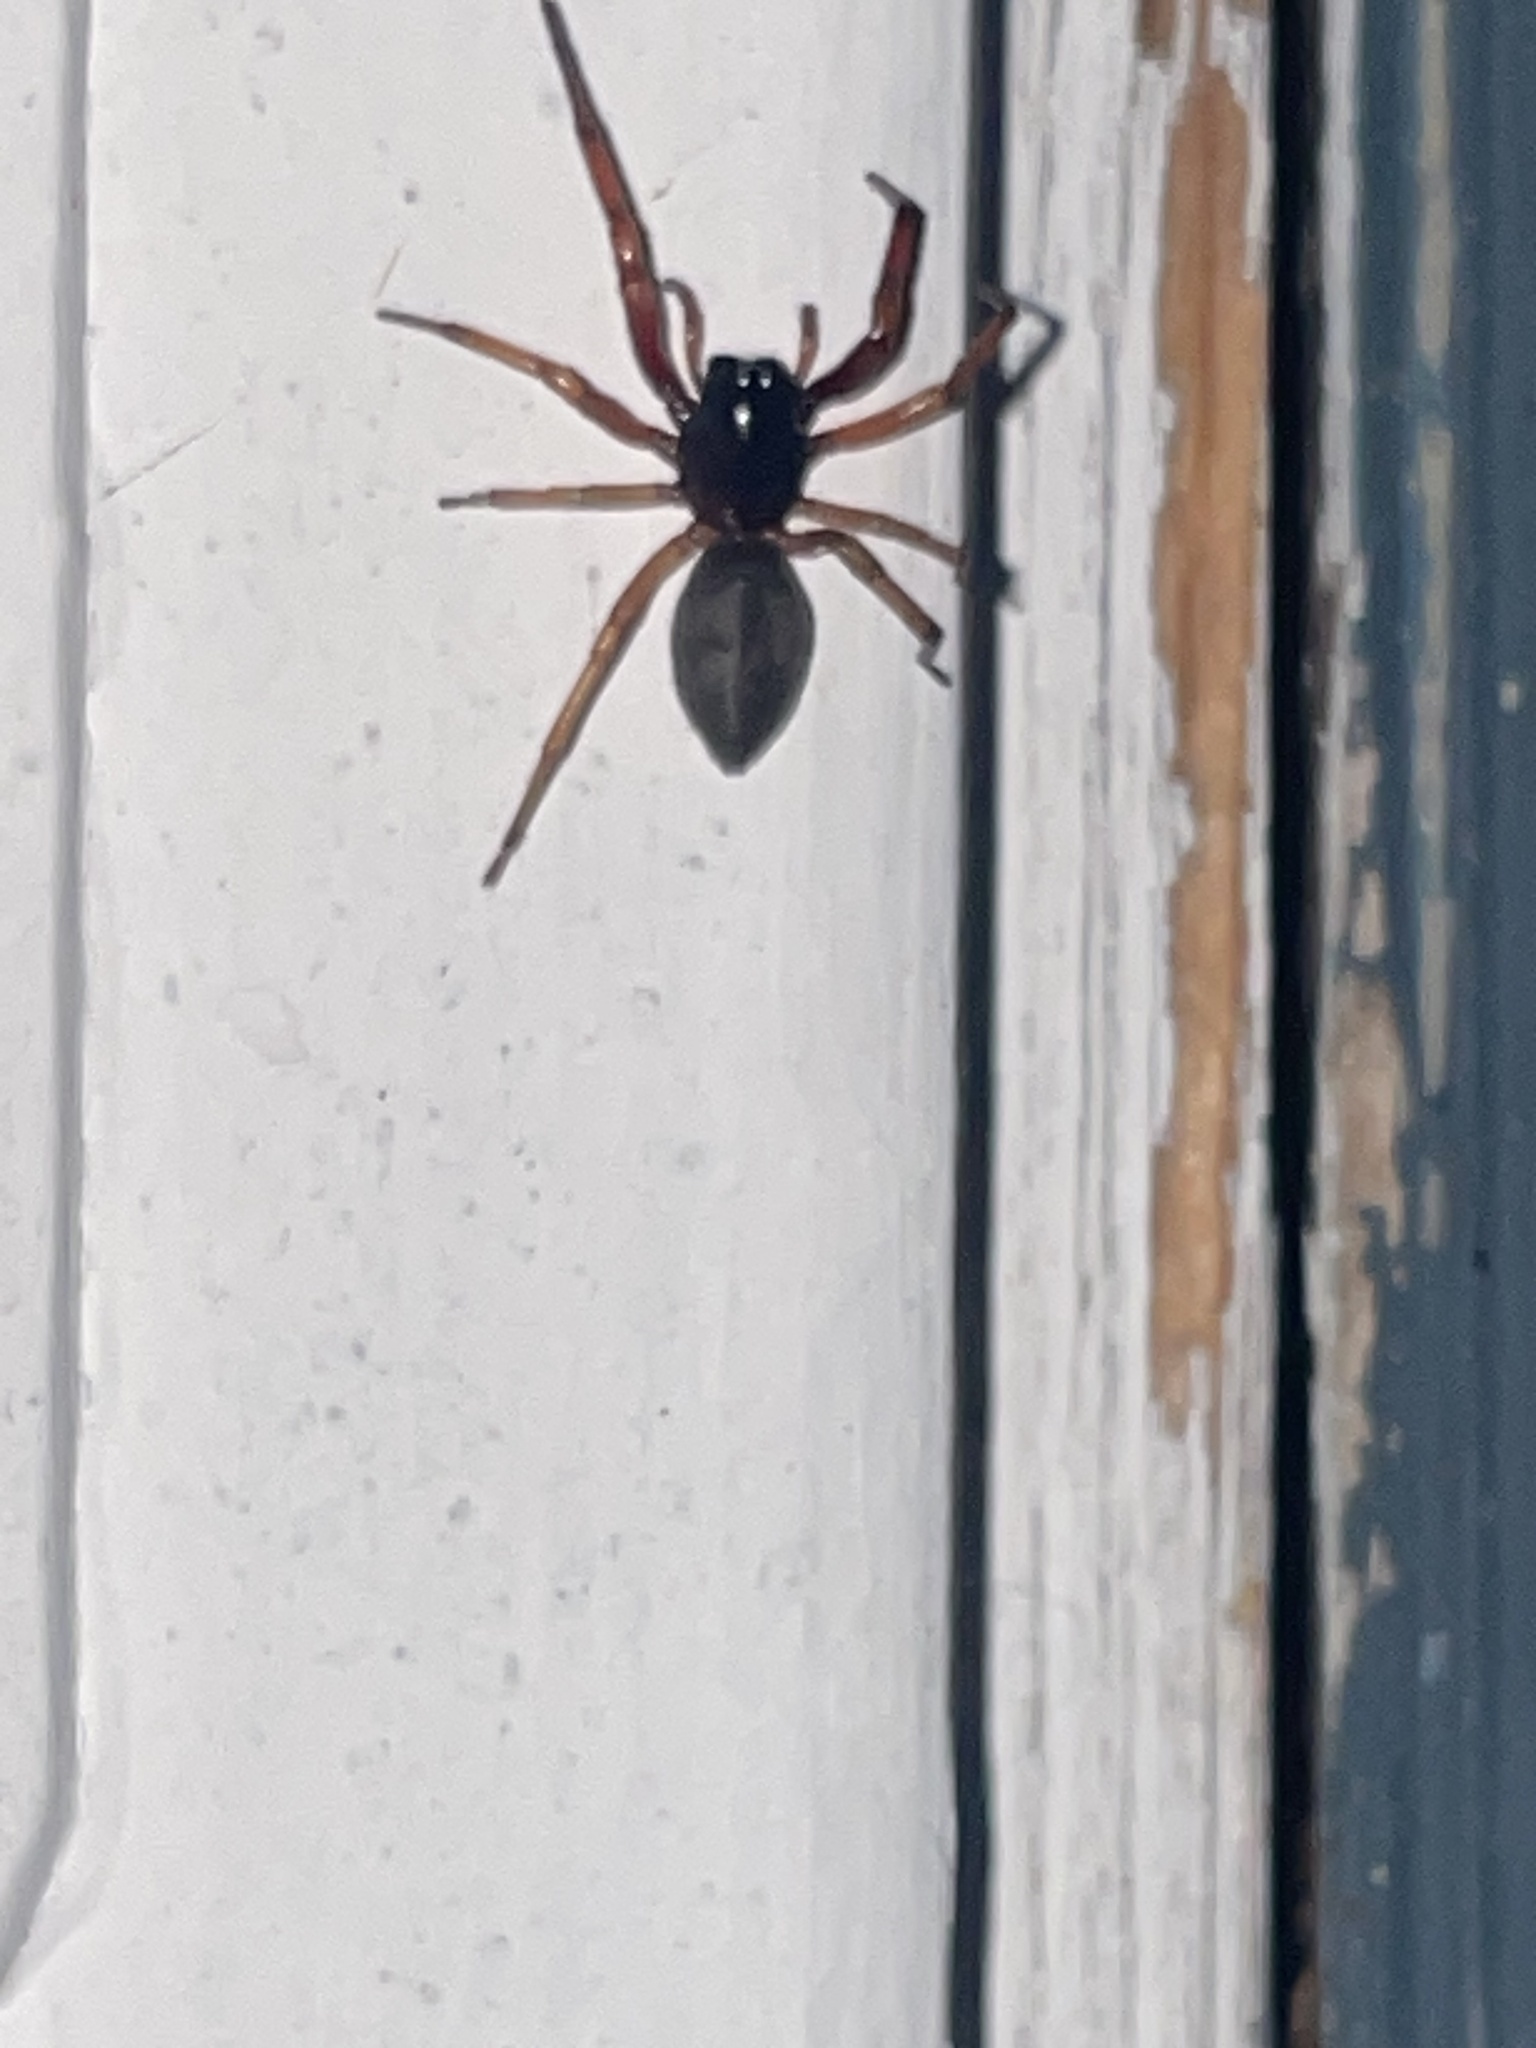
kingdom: Animalia
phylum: Arthropoda
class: Arachnida
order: Araneae
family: Trachelidae
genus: Trachelas
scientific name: Trachelas tranquillus
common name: Broad-faced sac spider
